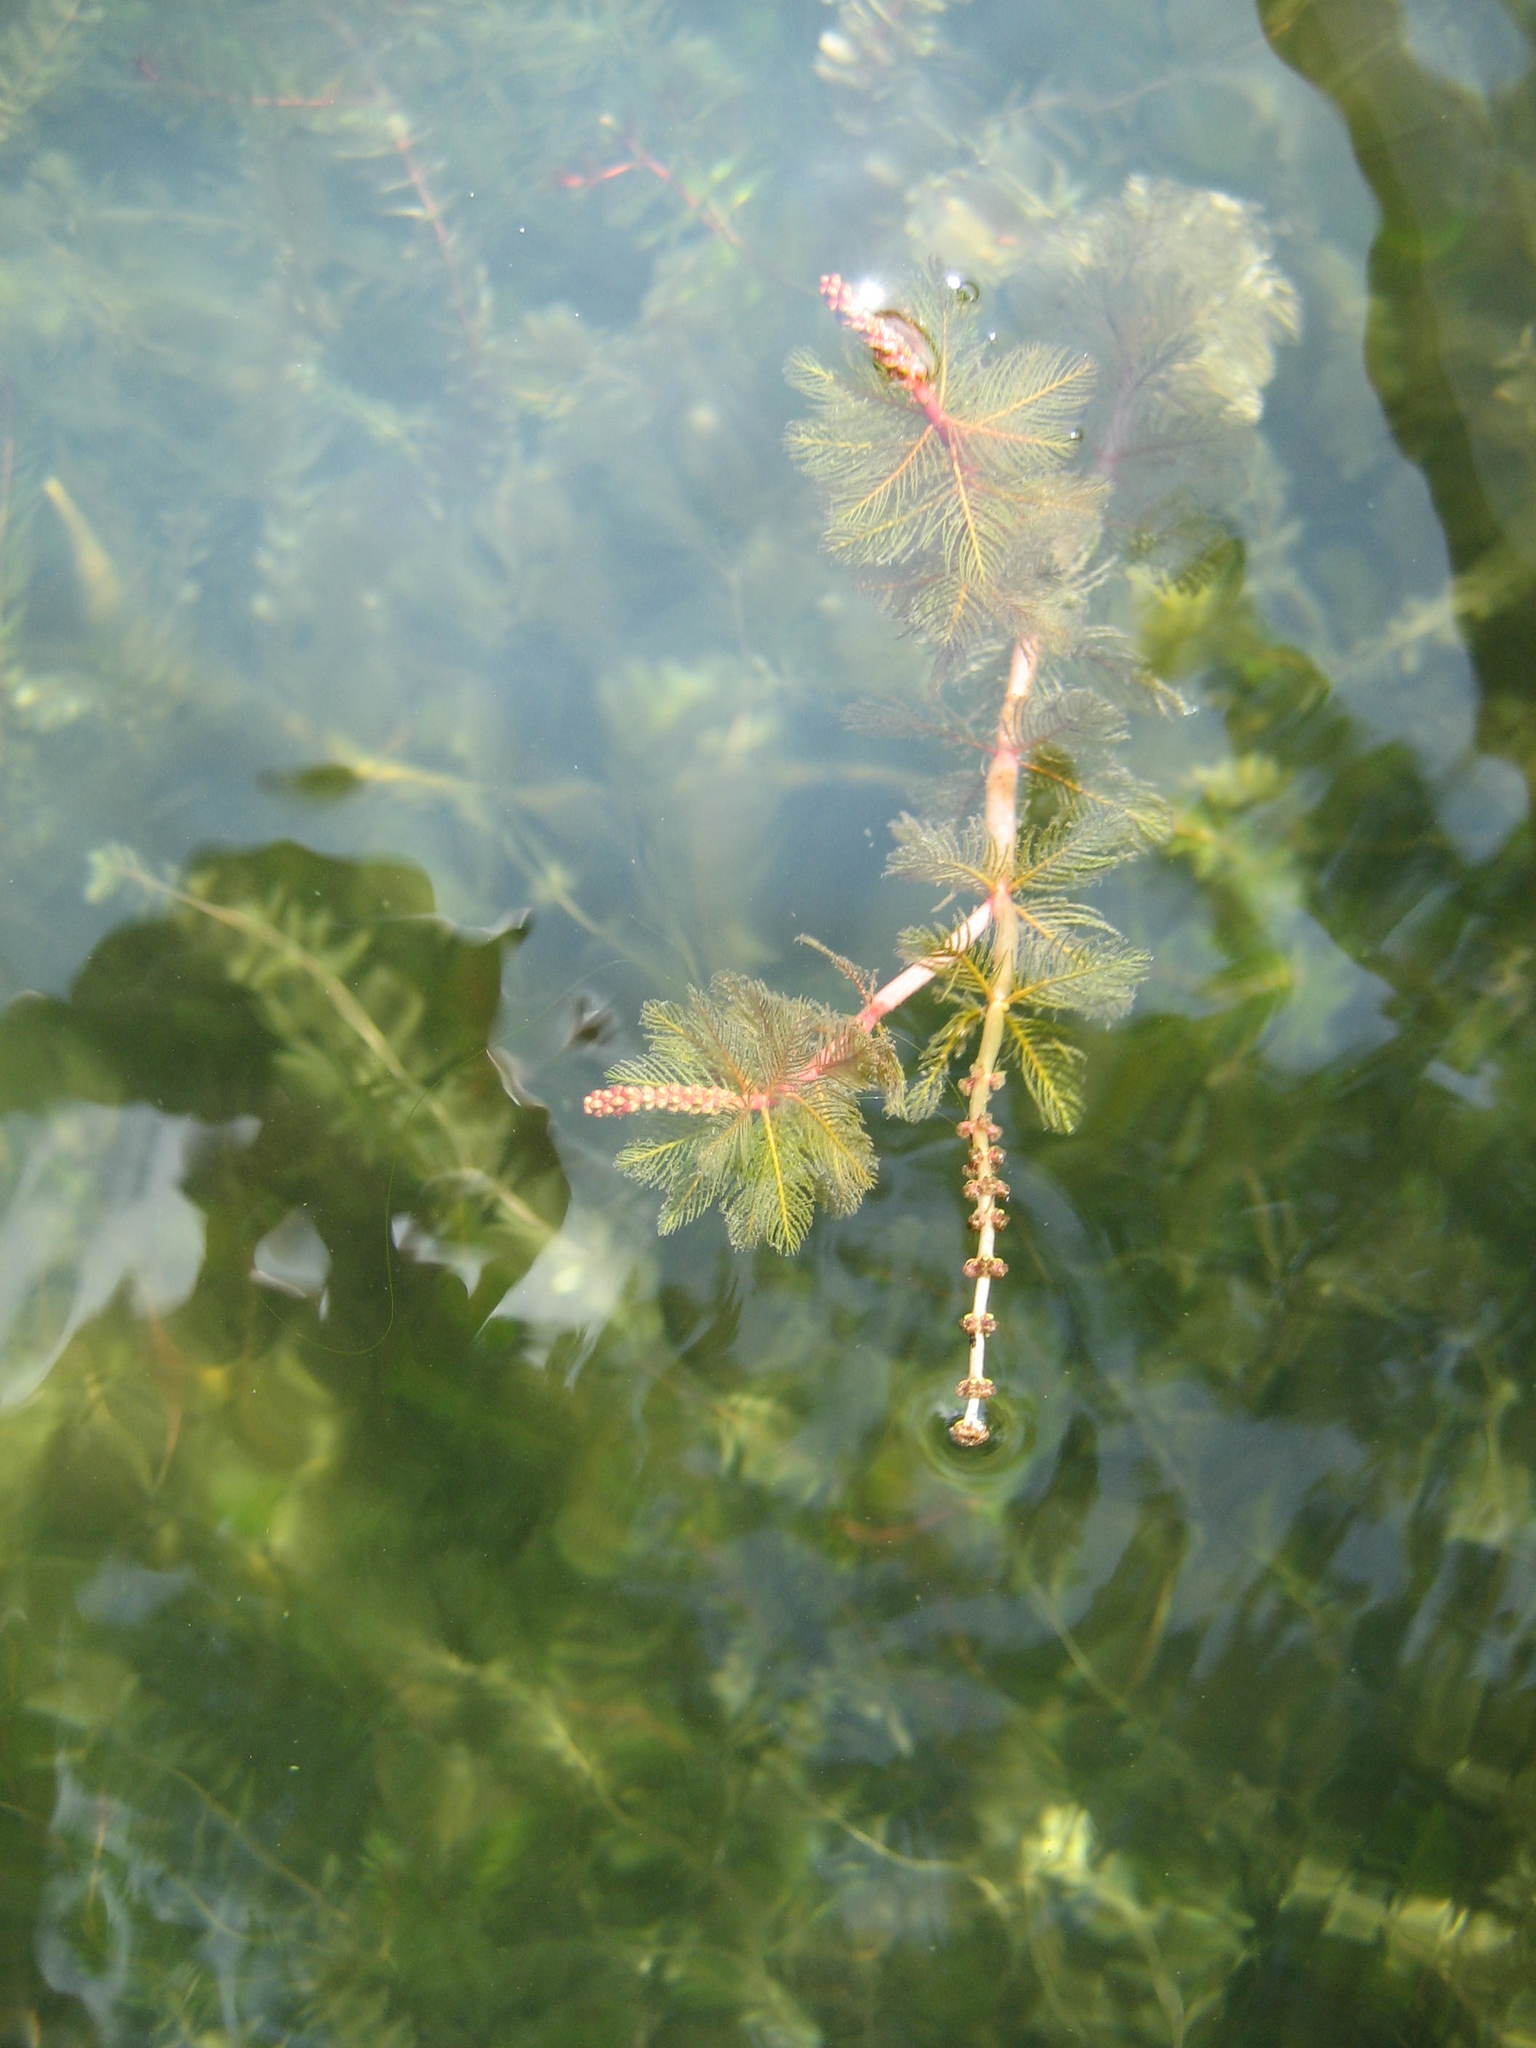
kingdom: Plantae
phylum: Tracheophyta
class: Magnoliopsida
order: Saxifragales
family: Haloragaceae
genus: Myriophyllum
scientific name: Myriophyllum spicatum
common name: Spiked water-milfoil
